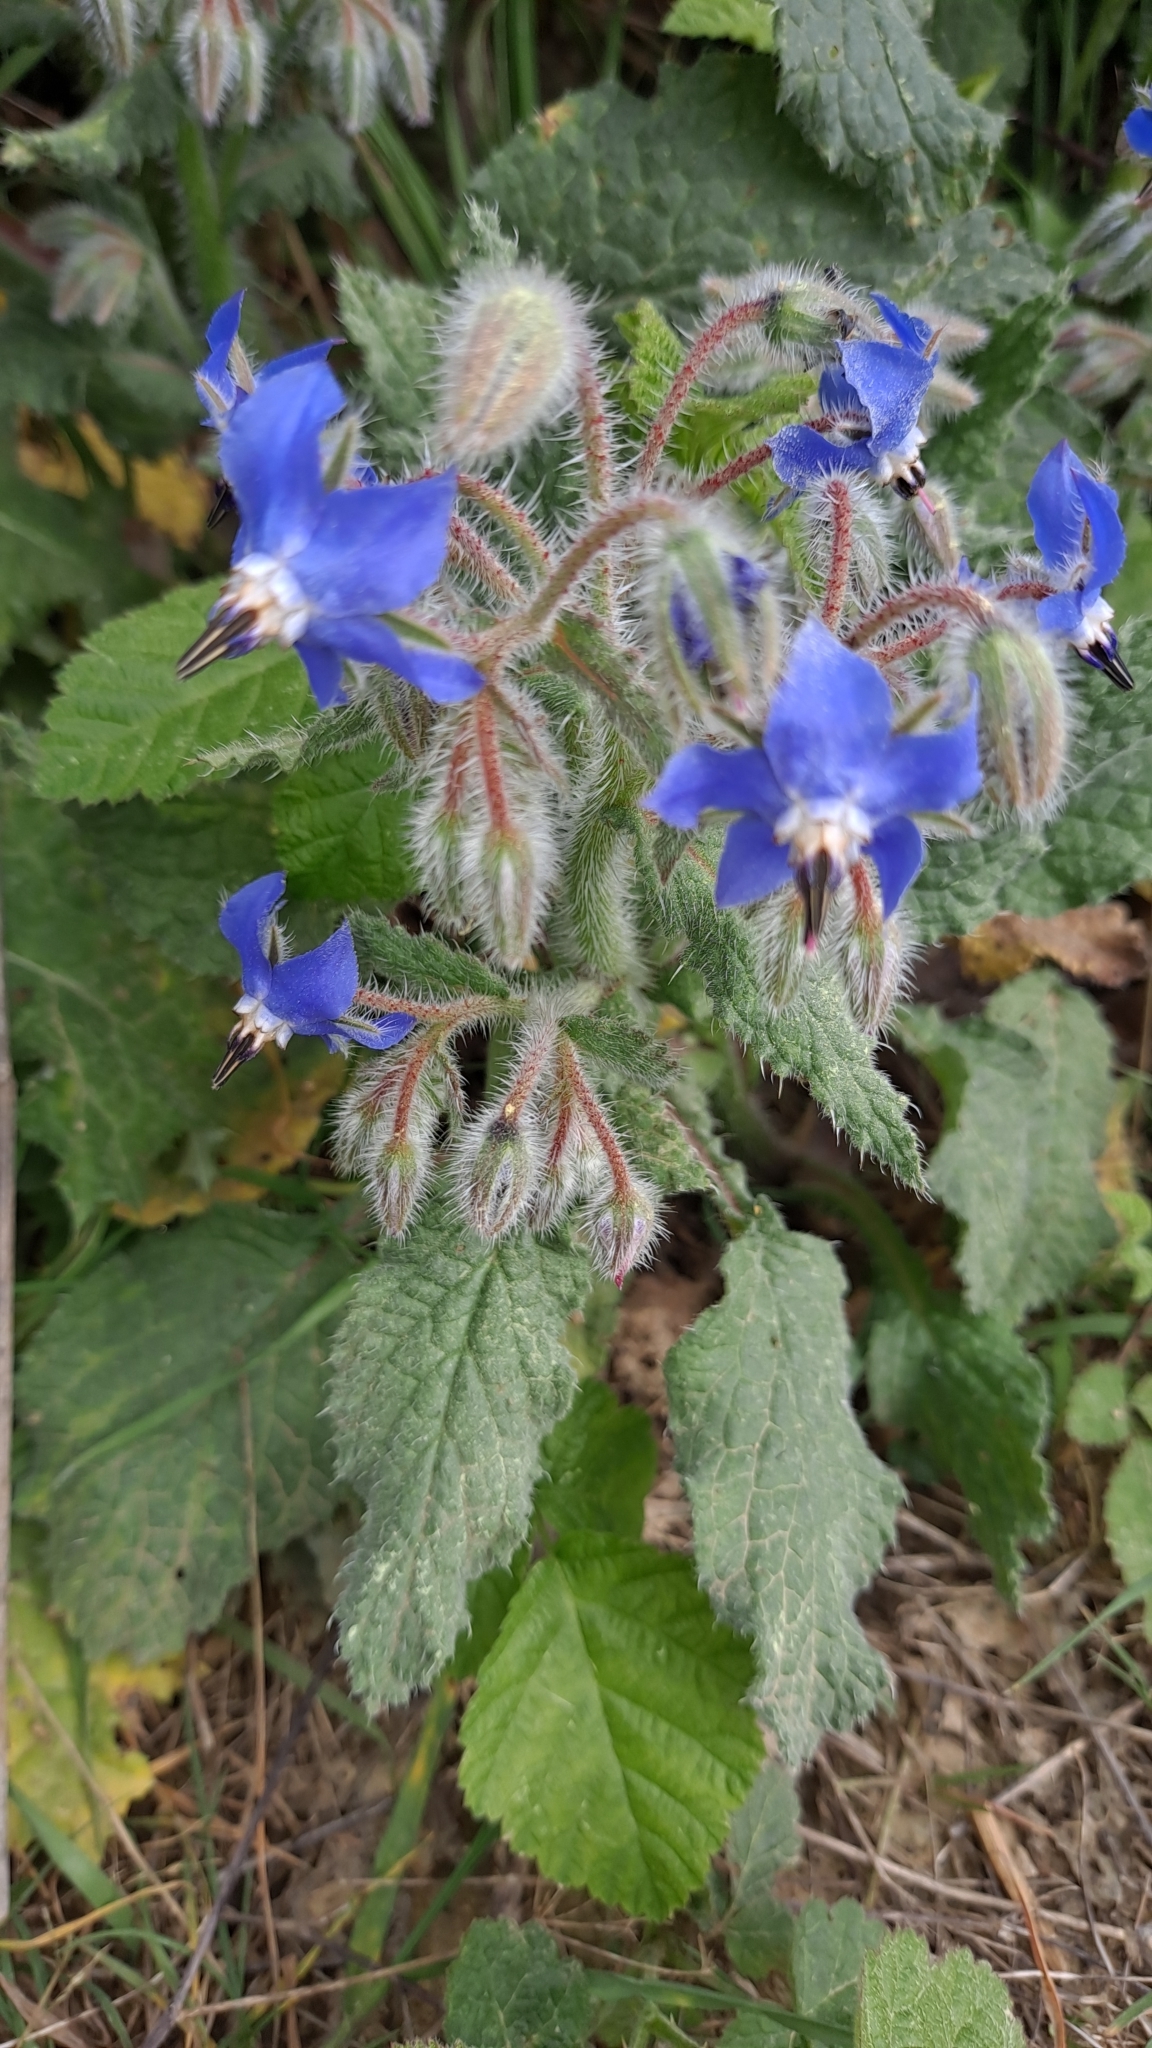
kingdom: Plantae
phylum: Tracheophyta
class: Magnoliopsida
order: Boraginales
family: Boraginaceae
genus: Borago
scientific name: Borago officinalis
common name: Borage
